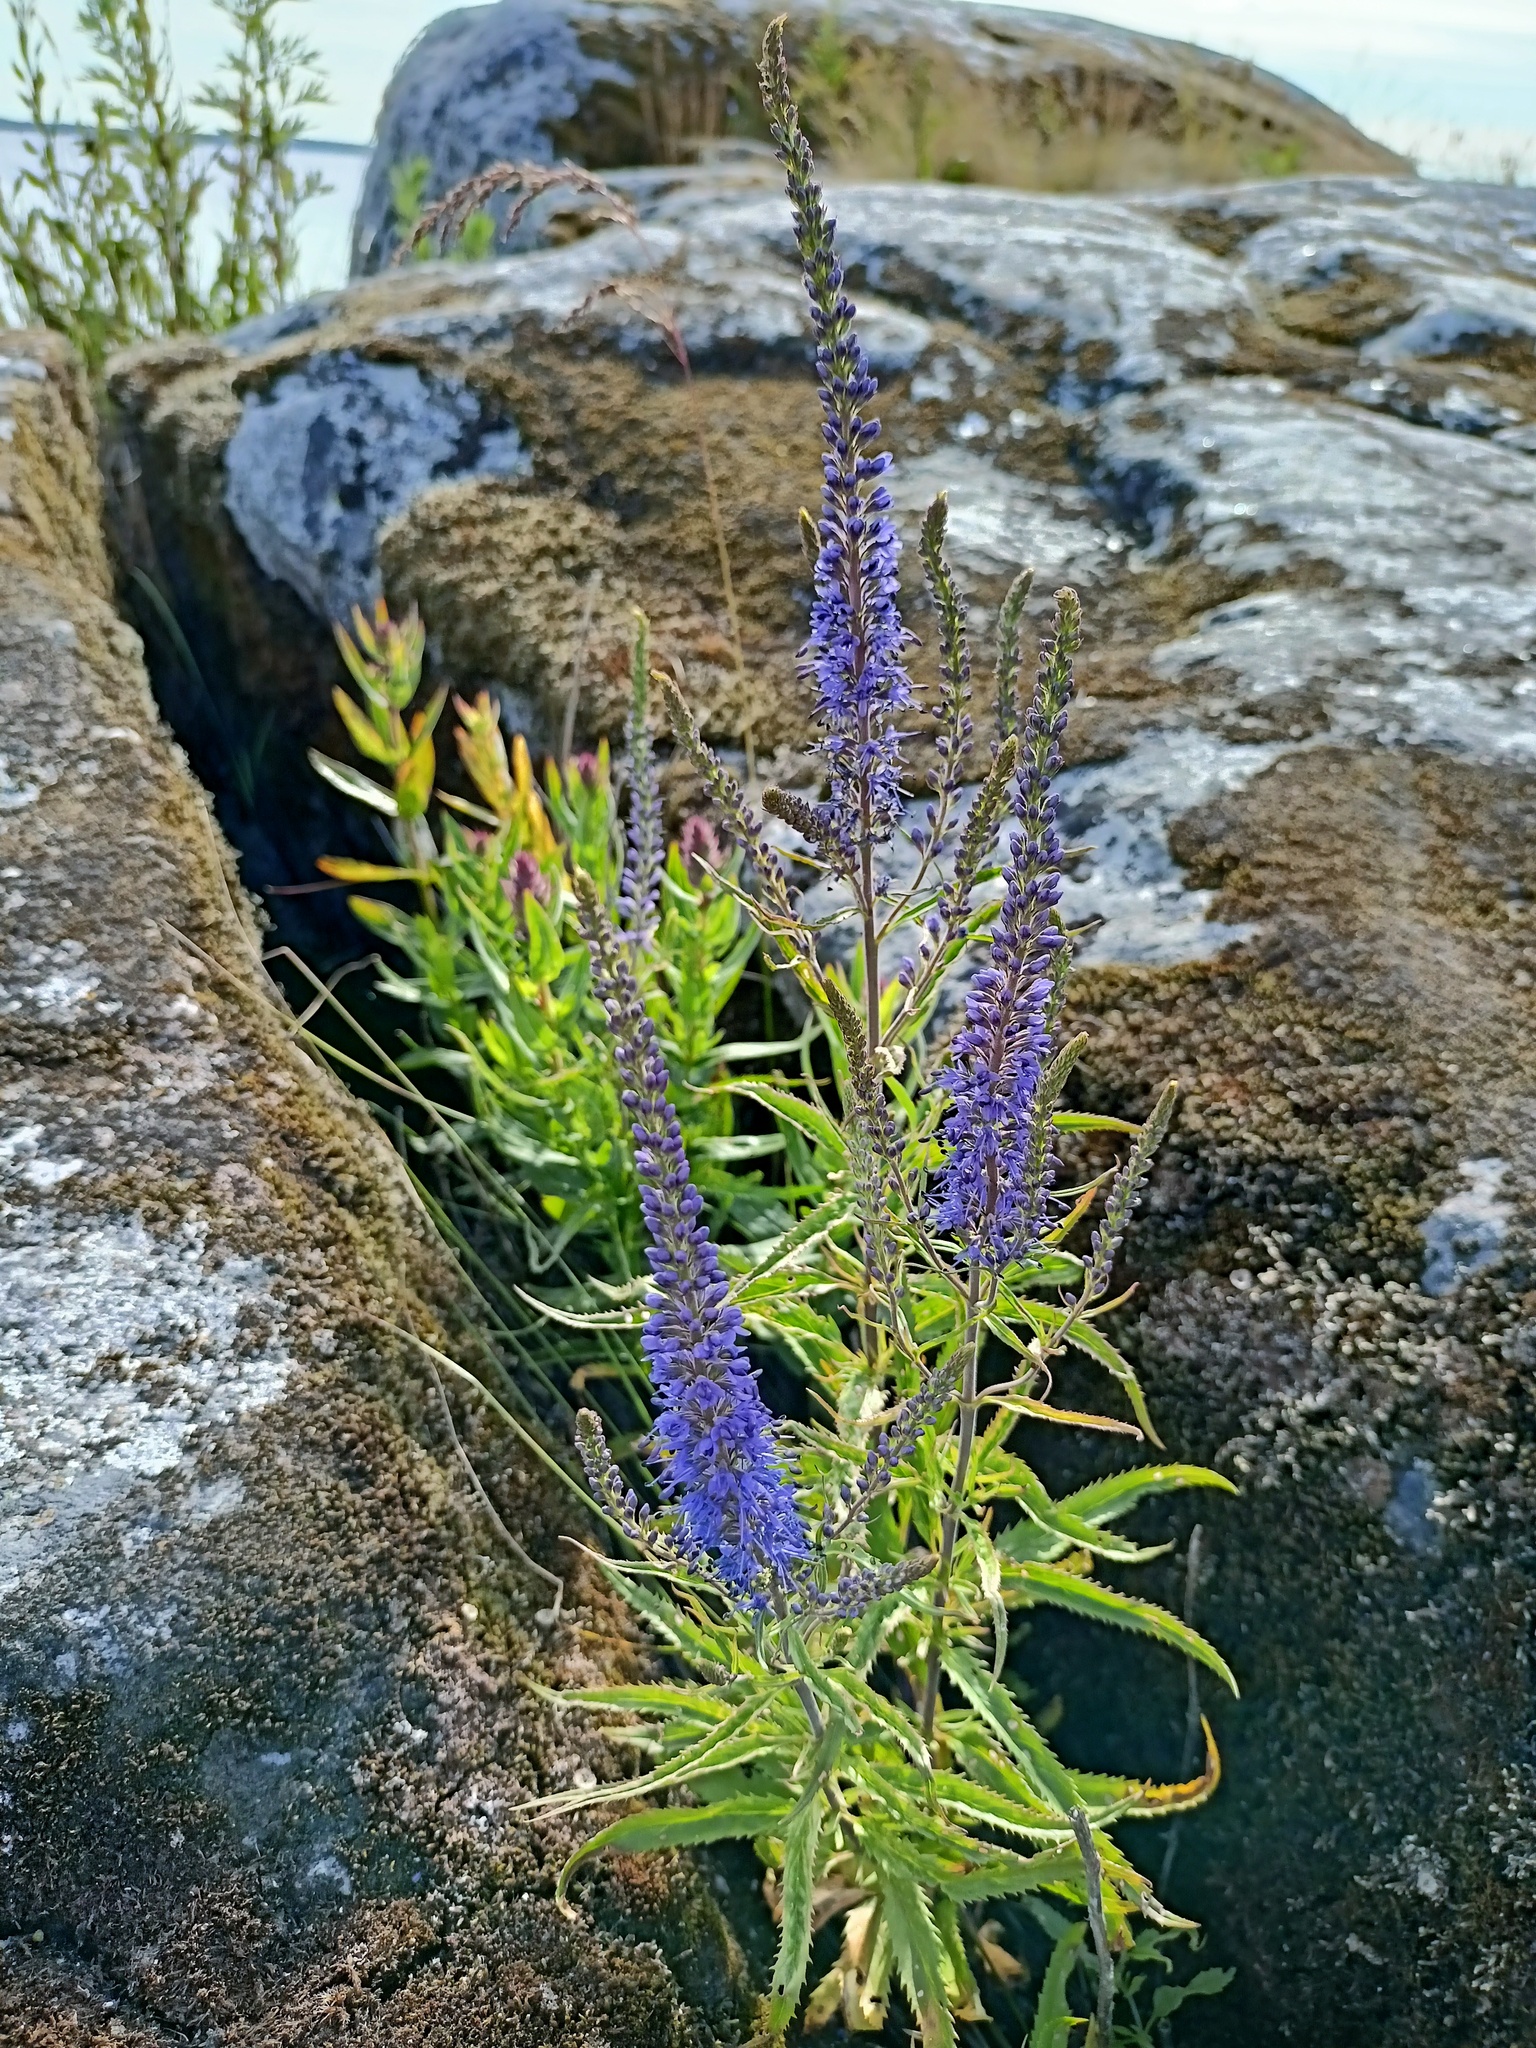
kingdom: Plantae
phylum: Tracheophyta
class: Magnoliopsida
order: Lamiales
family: Plantaginaceae
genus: Veronica
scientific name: Veronica longifolia
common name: Garden speedwell
